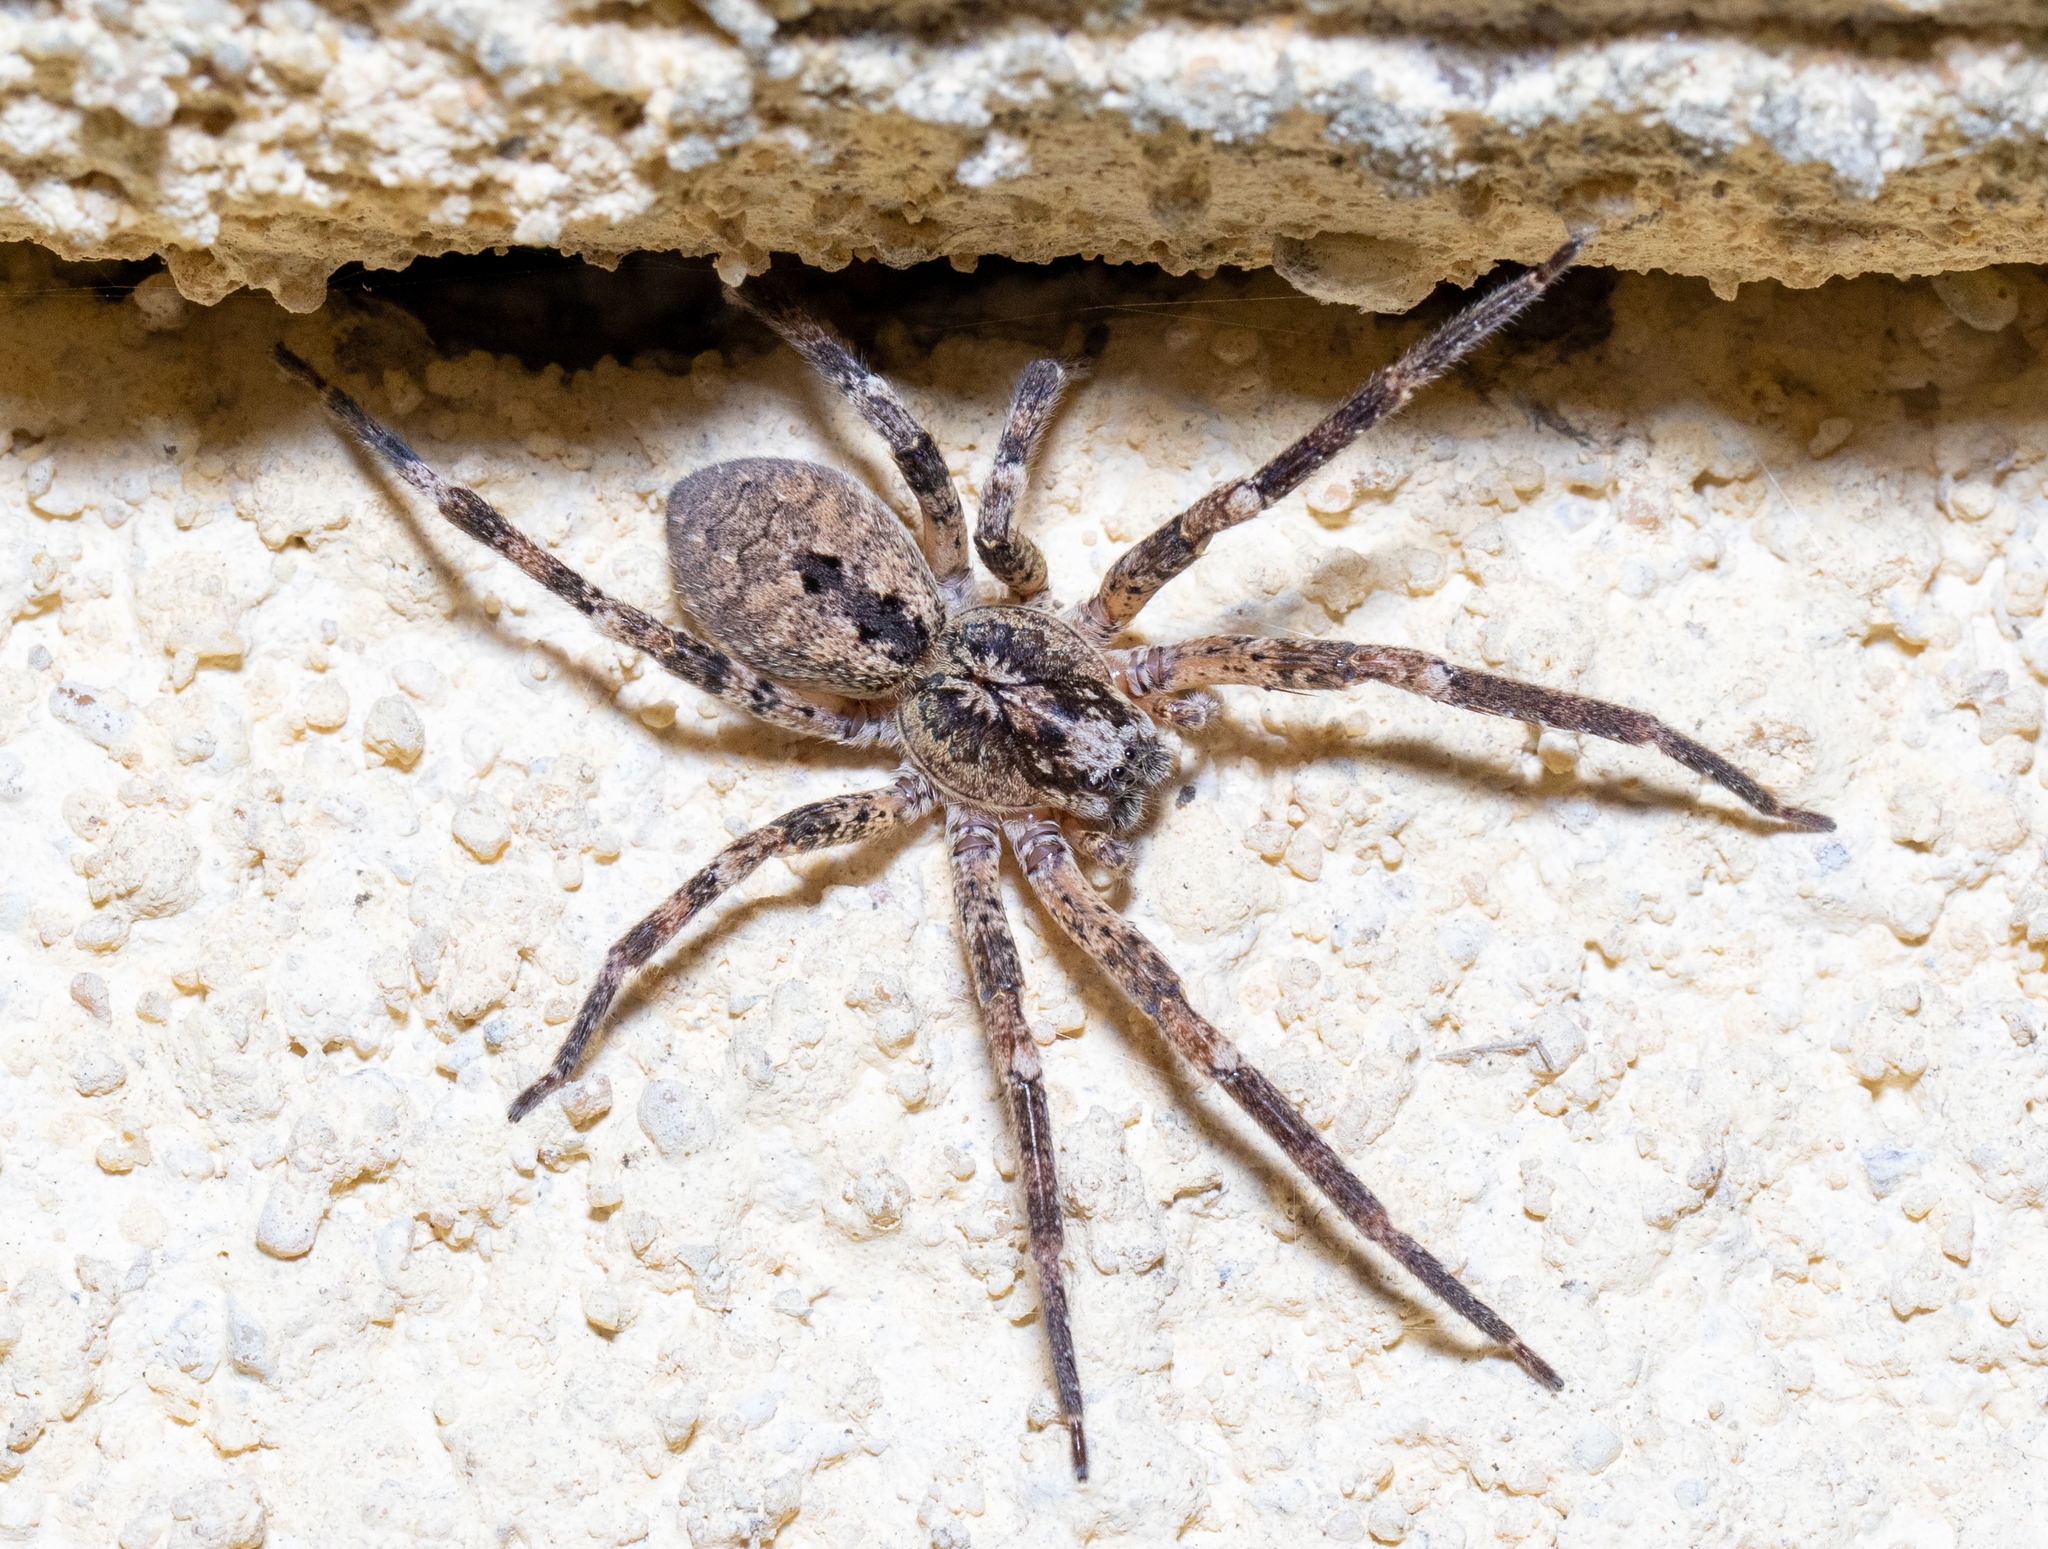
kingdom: Animalia
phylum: Arthropoda
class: Arachnida
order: Araneae
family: Zoropsidae
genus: Zoropsis
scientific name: Zoropsis spinimana
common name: Zoropsid spider
